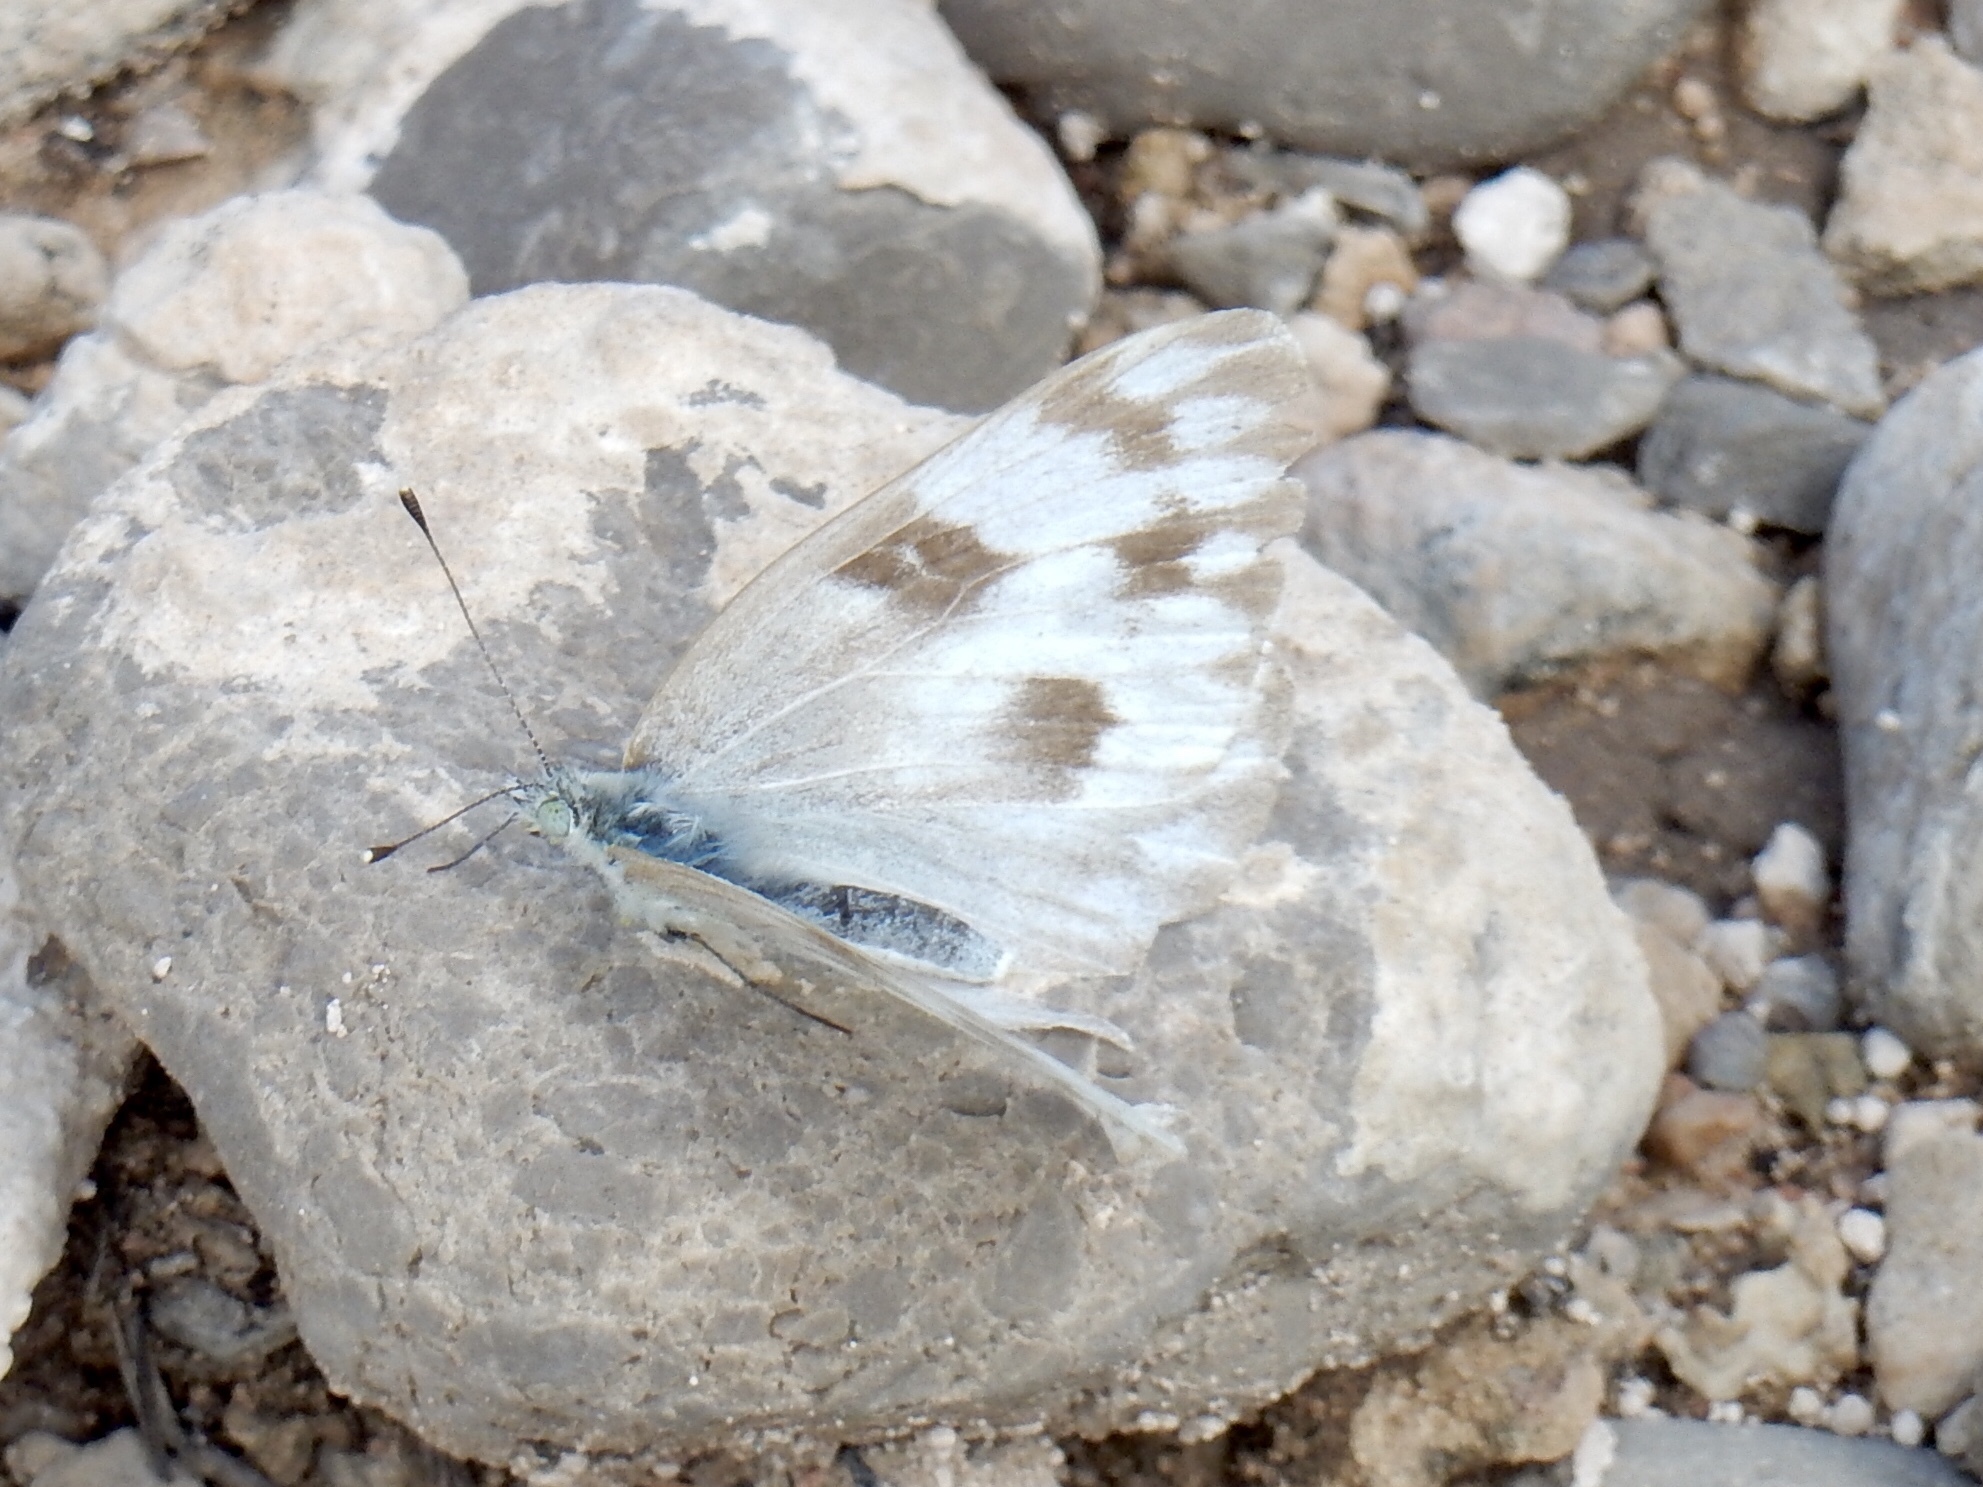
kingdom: Animalia
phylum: Arthropoda
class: Insecta
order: Lepidoptera
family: Pieridae
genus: Pontia
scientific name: Pontia protodice
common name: Checkered white
